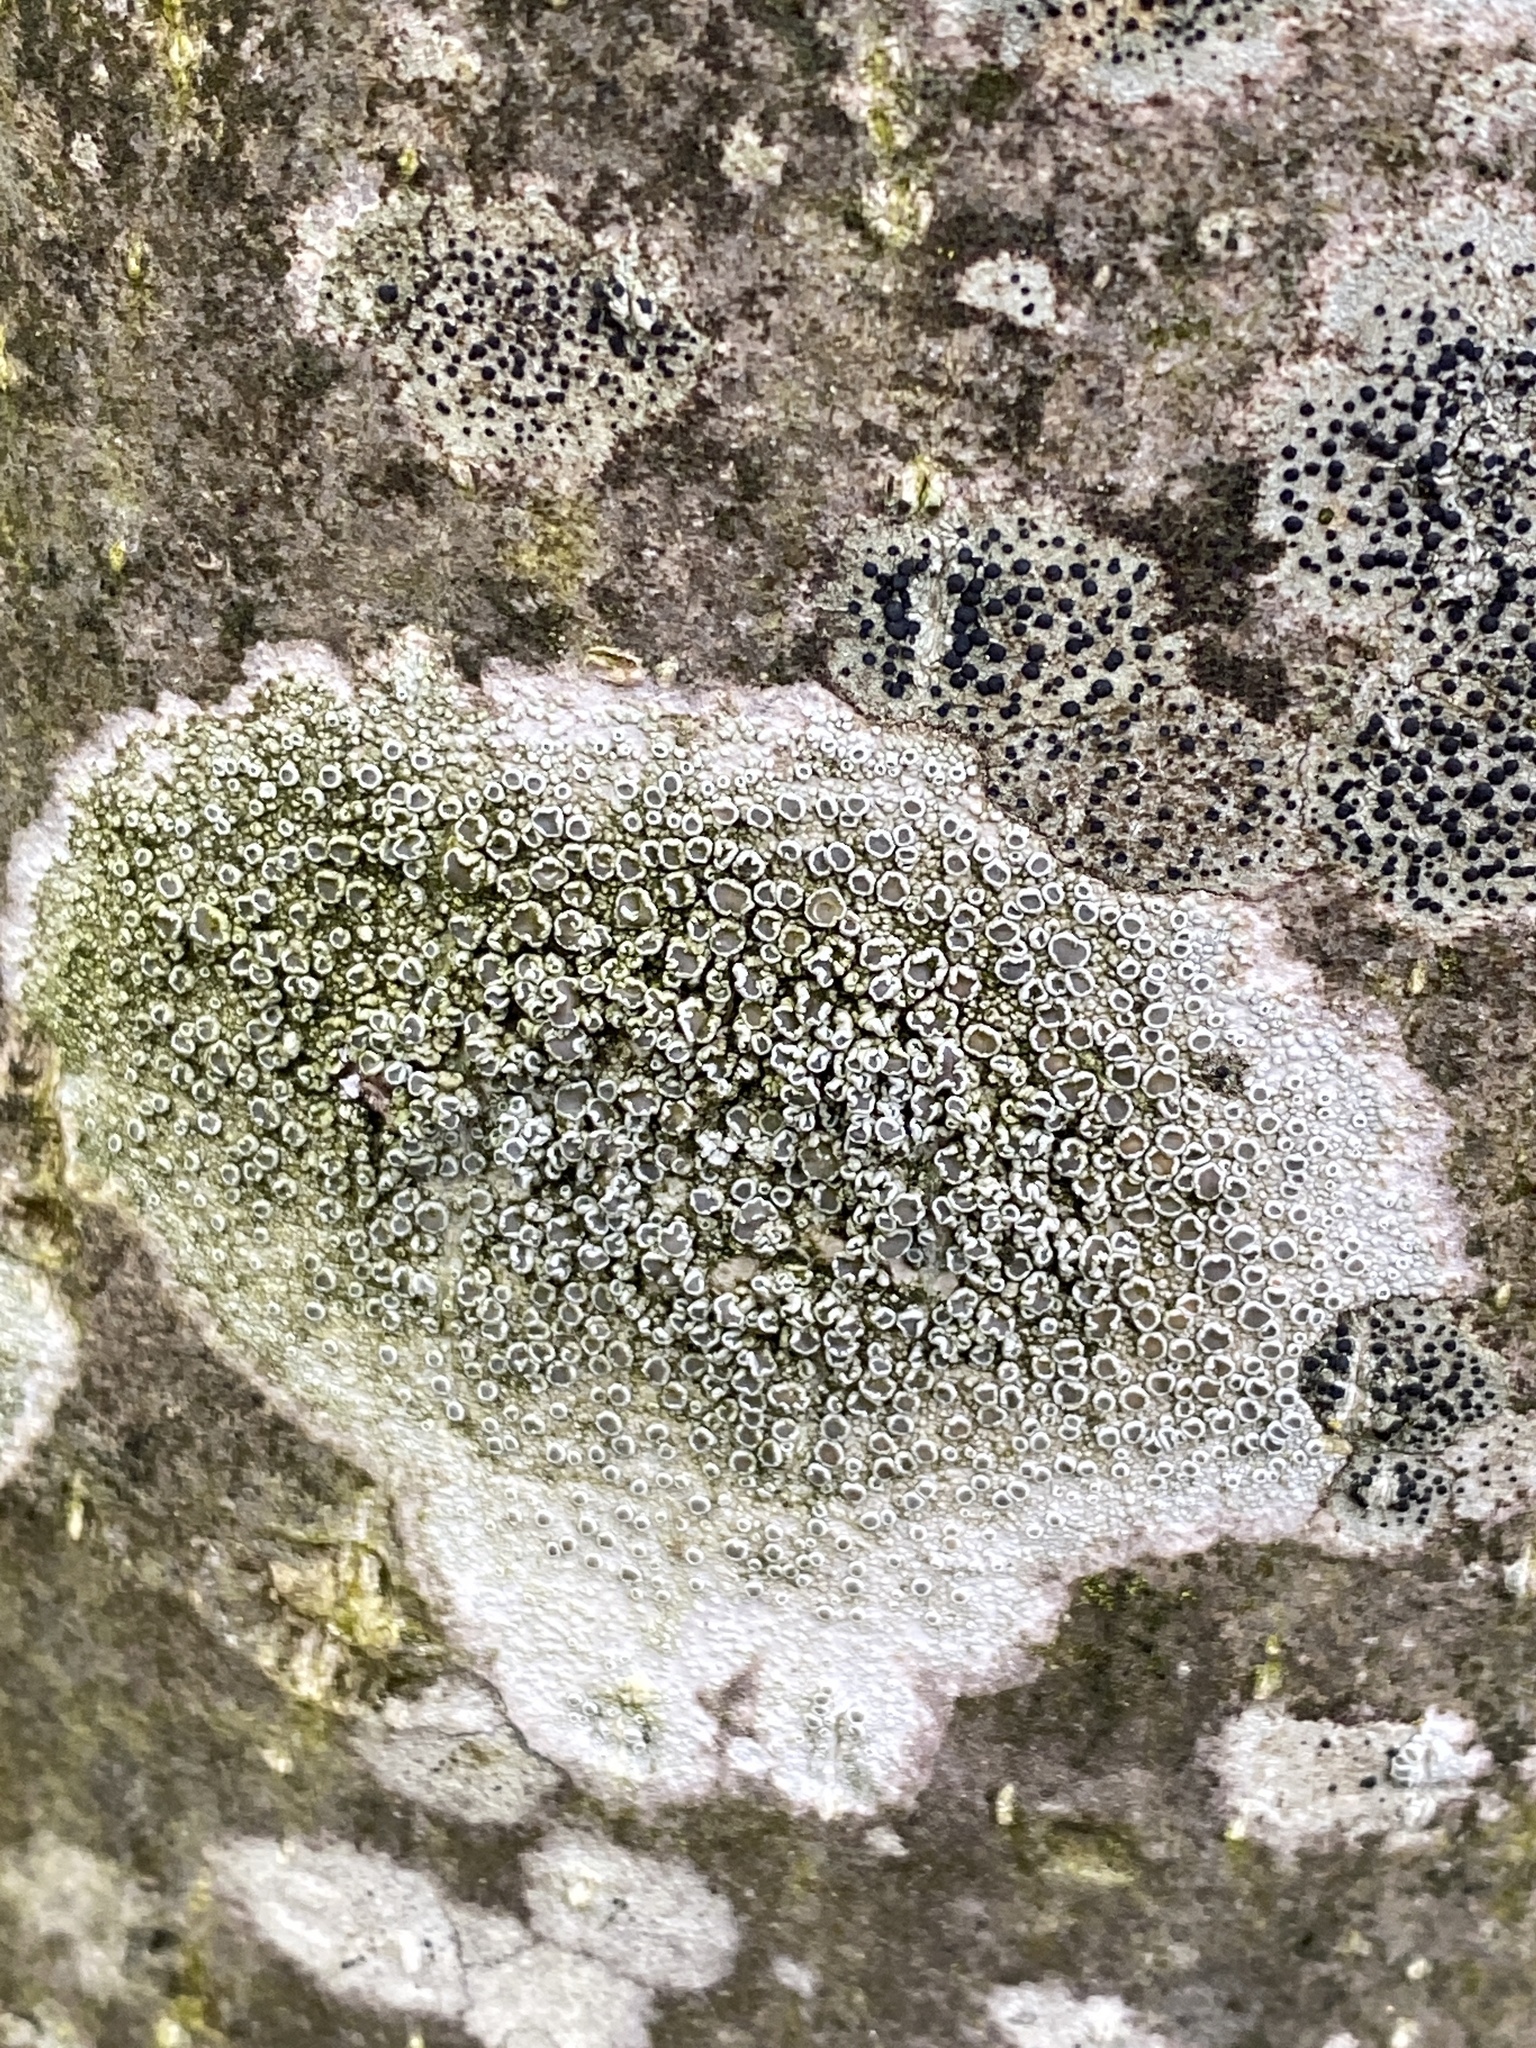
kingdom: Fungi
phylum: Ascomycota
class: Lecanoromycetes
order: Lecanorales
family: Lecanoraceae
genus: Lecanora
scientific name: Lecanora chlarotera
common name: Brown rim-lichen
